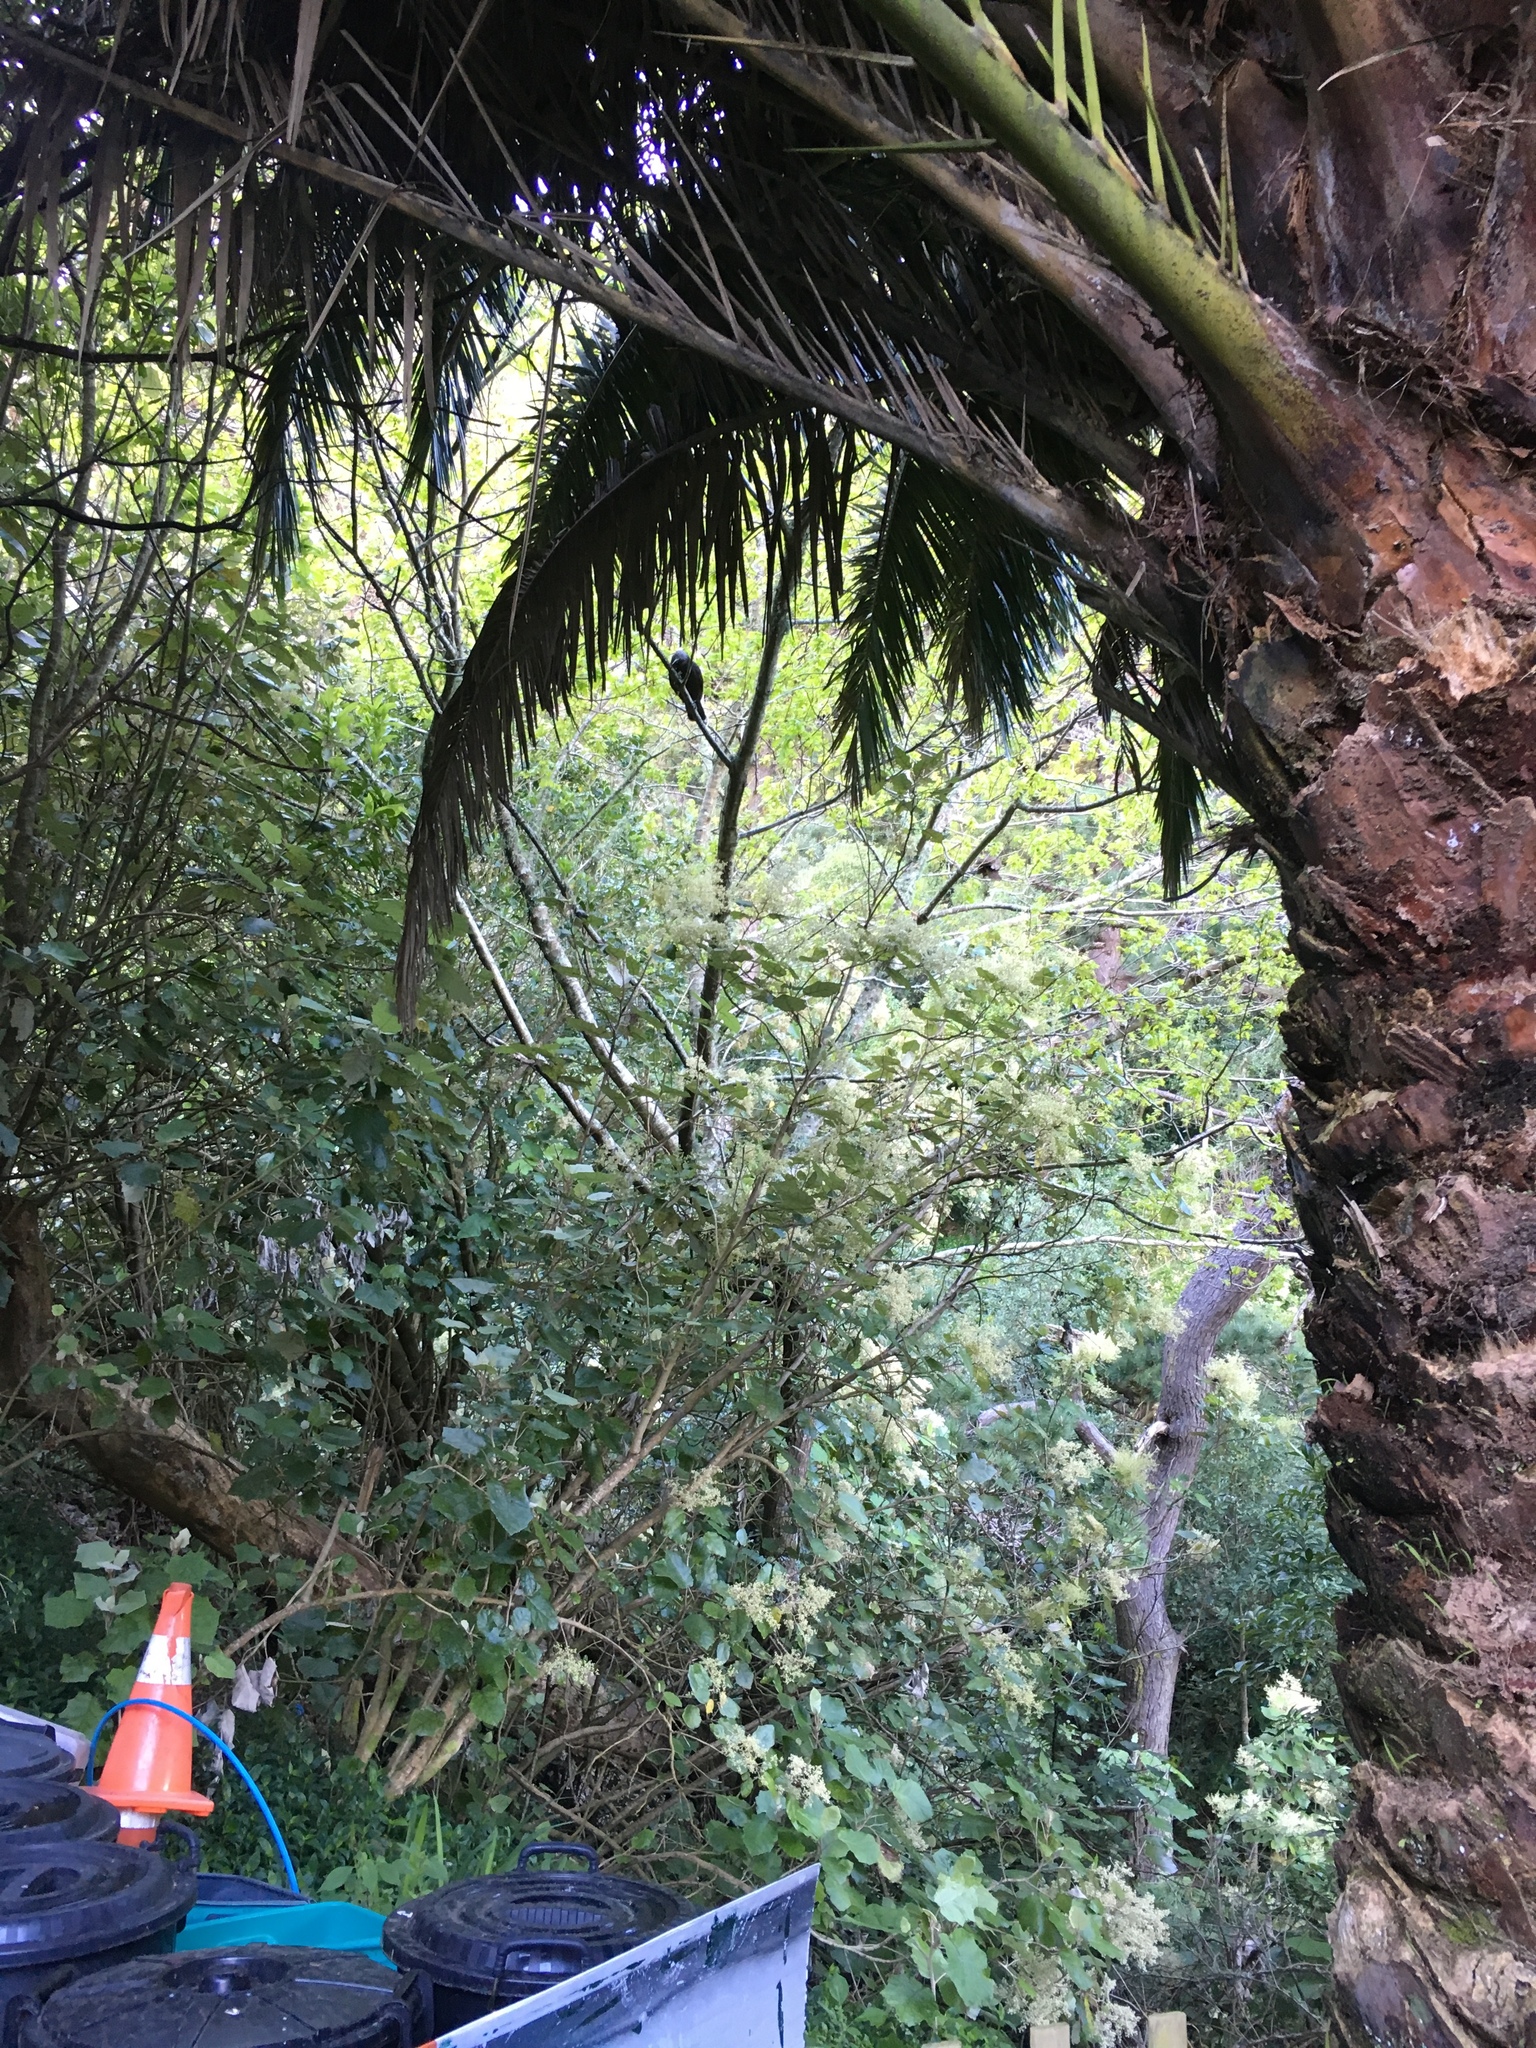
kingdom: Animalia
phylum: Chordata
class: Aves
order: Psittaciformes
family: Psittacidae
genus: Nestor
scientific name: Nestor meridionalis
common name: New zealand kaka
